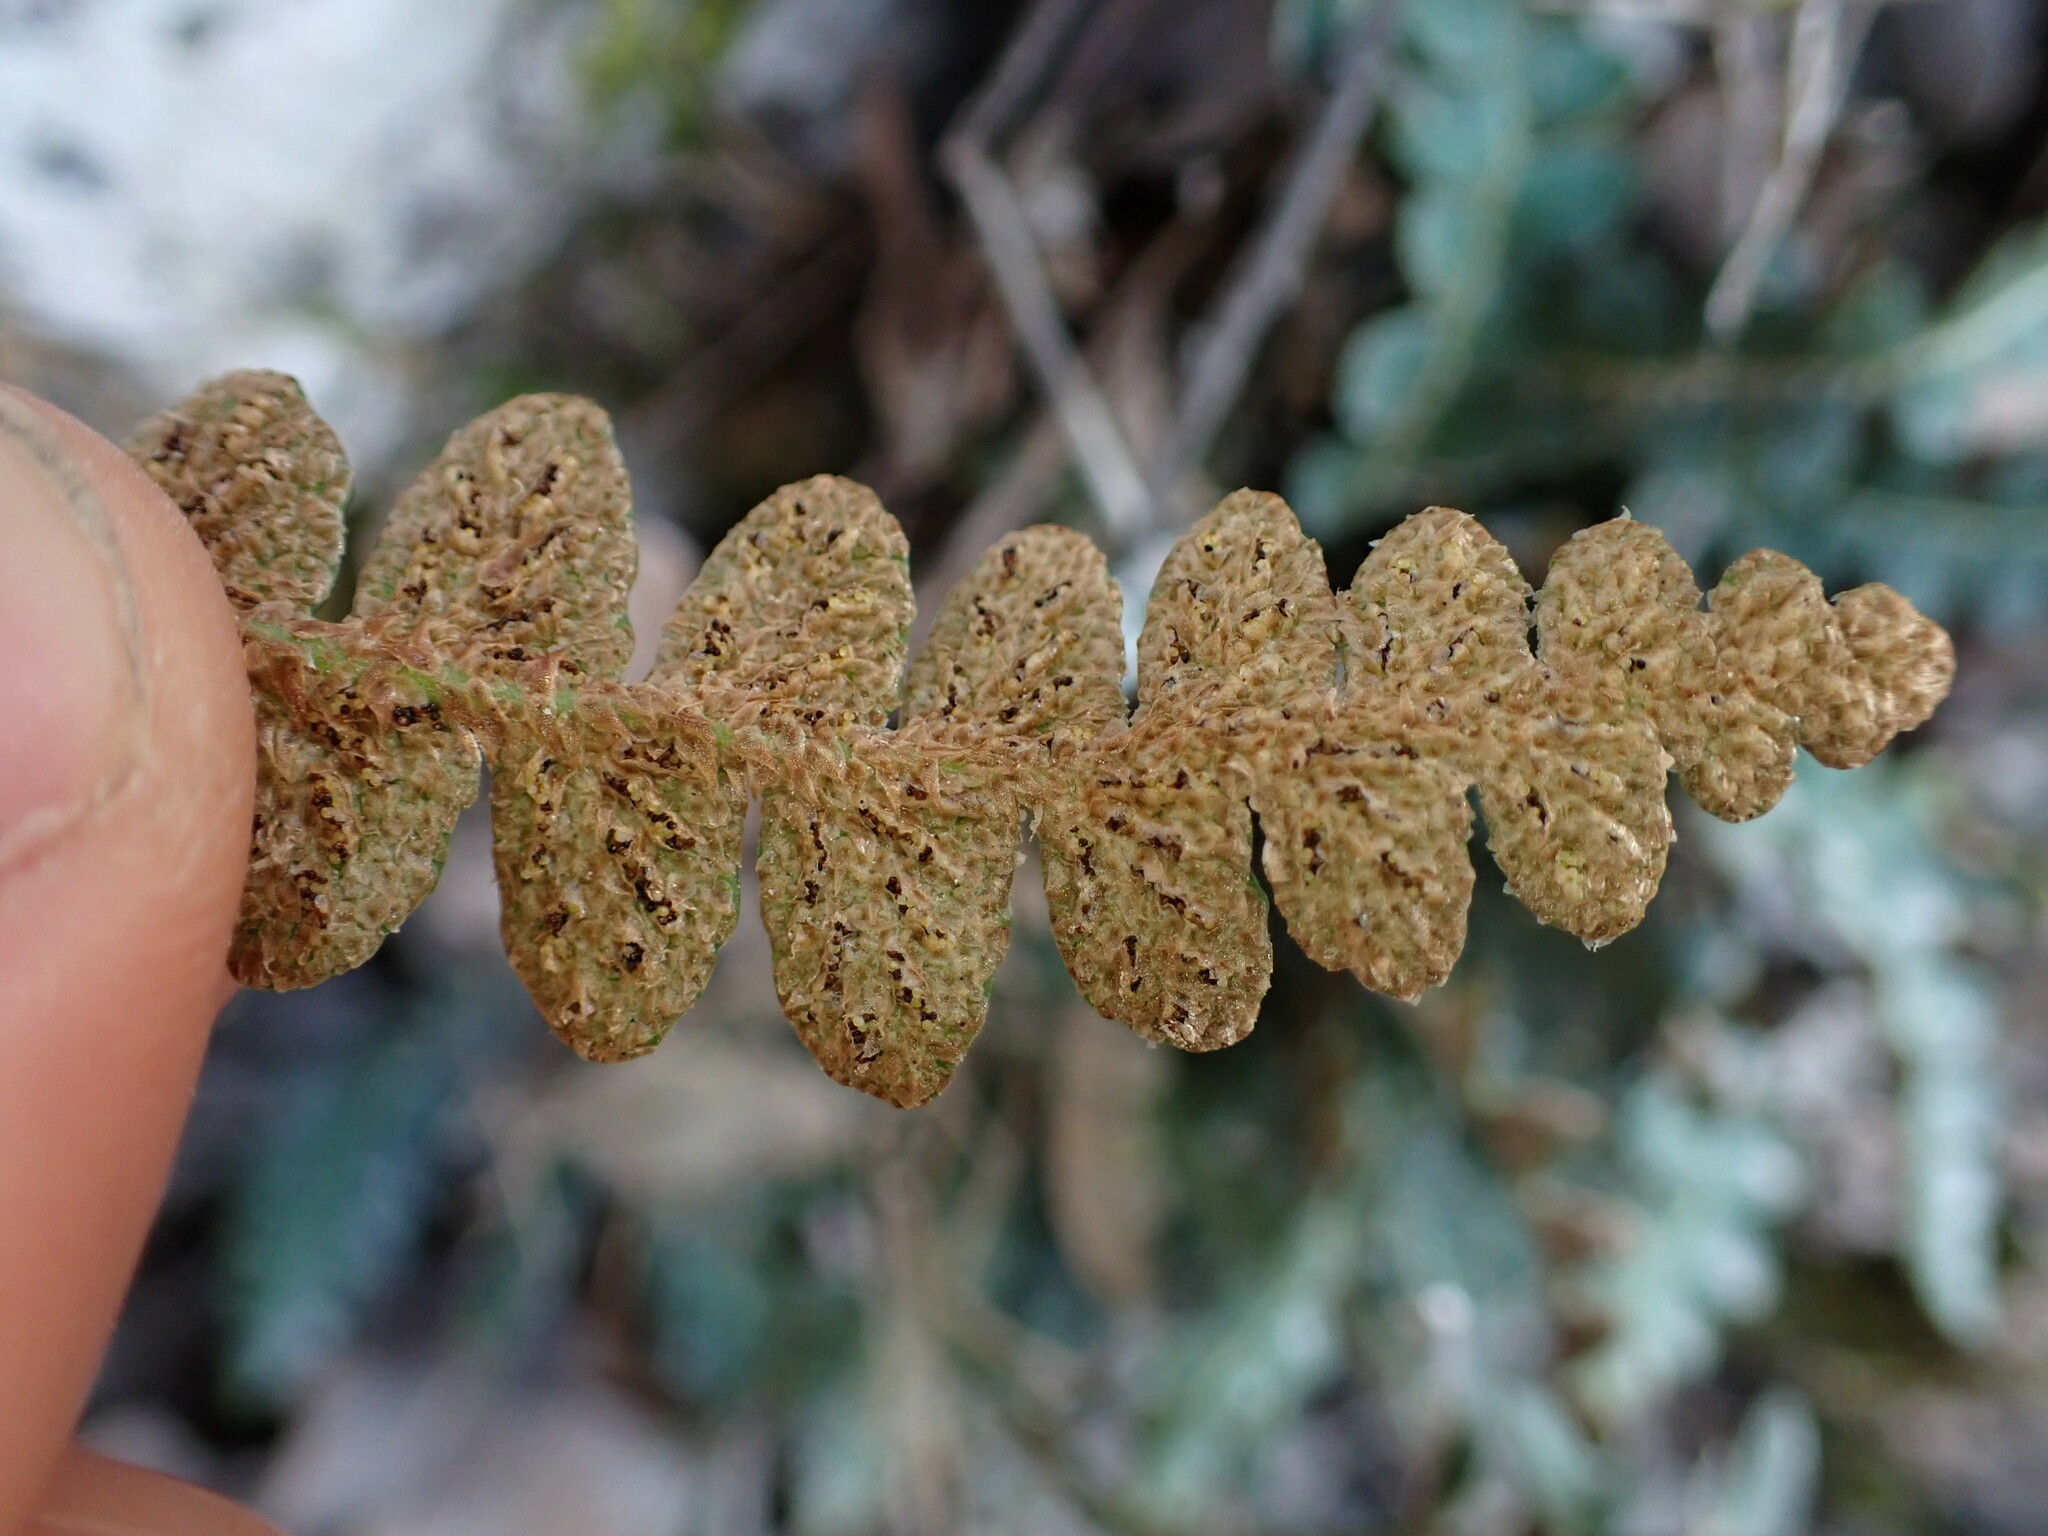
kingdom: Plantae
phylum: Tracheophyta
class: Polypodiopsida
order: Polypodiales
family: Aspleniaceae
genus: Asplenium
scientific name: Asplenium ceterach
